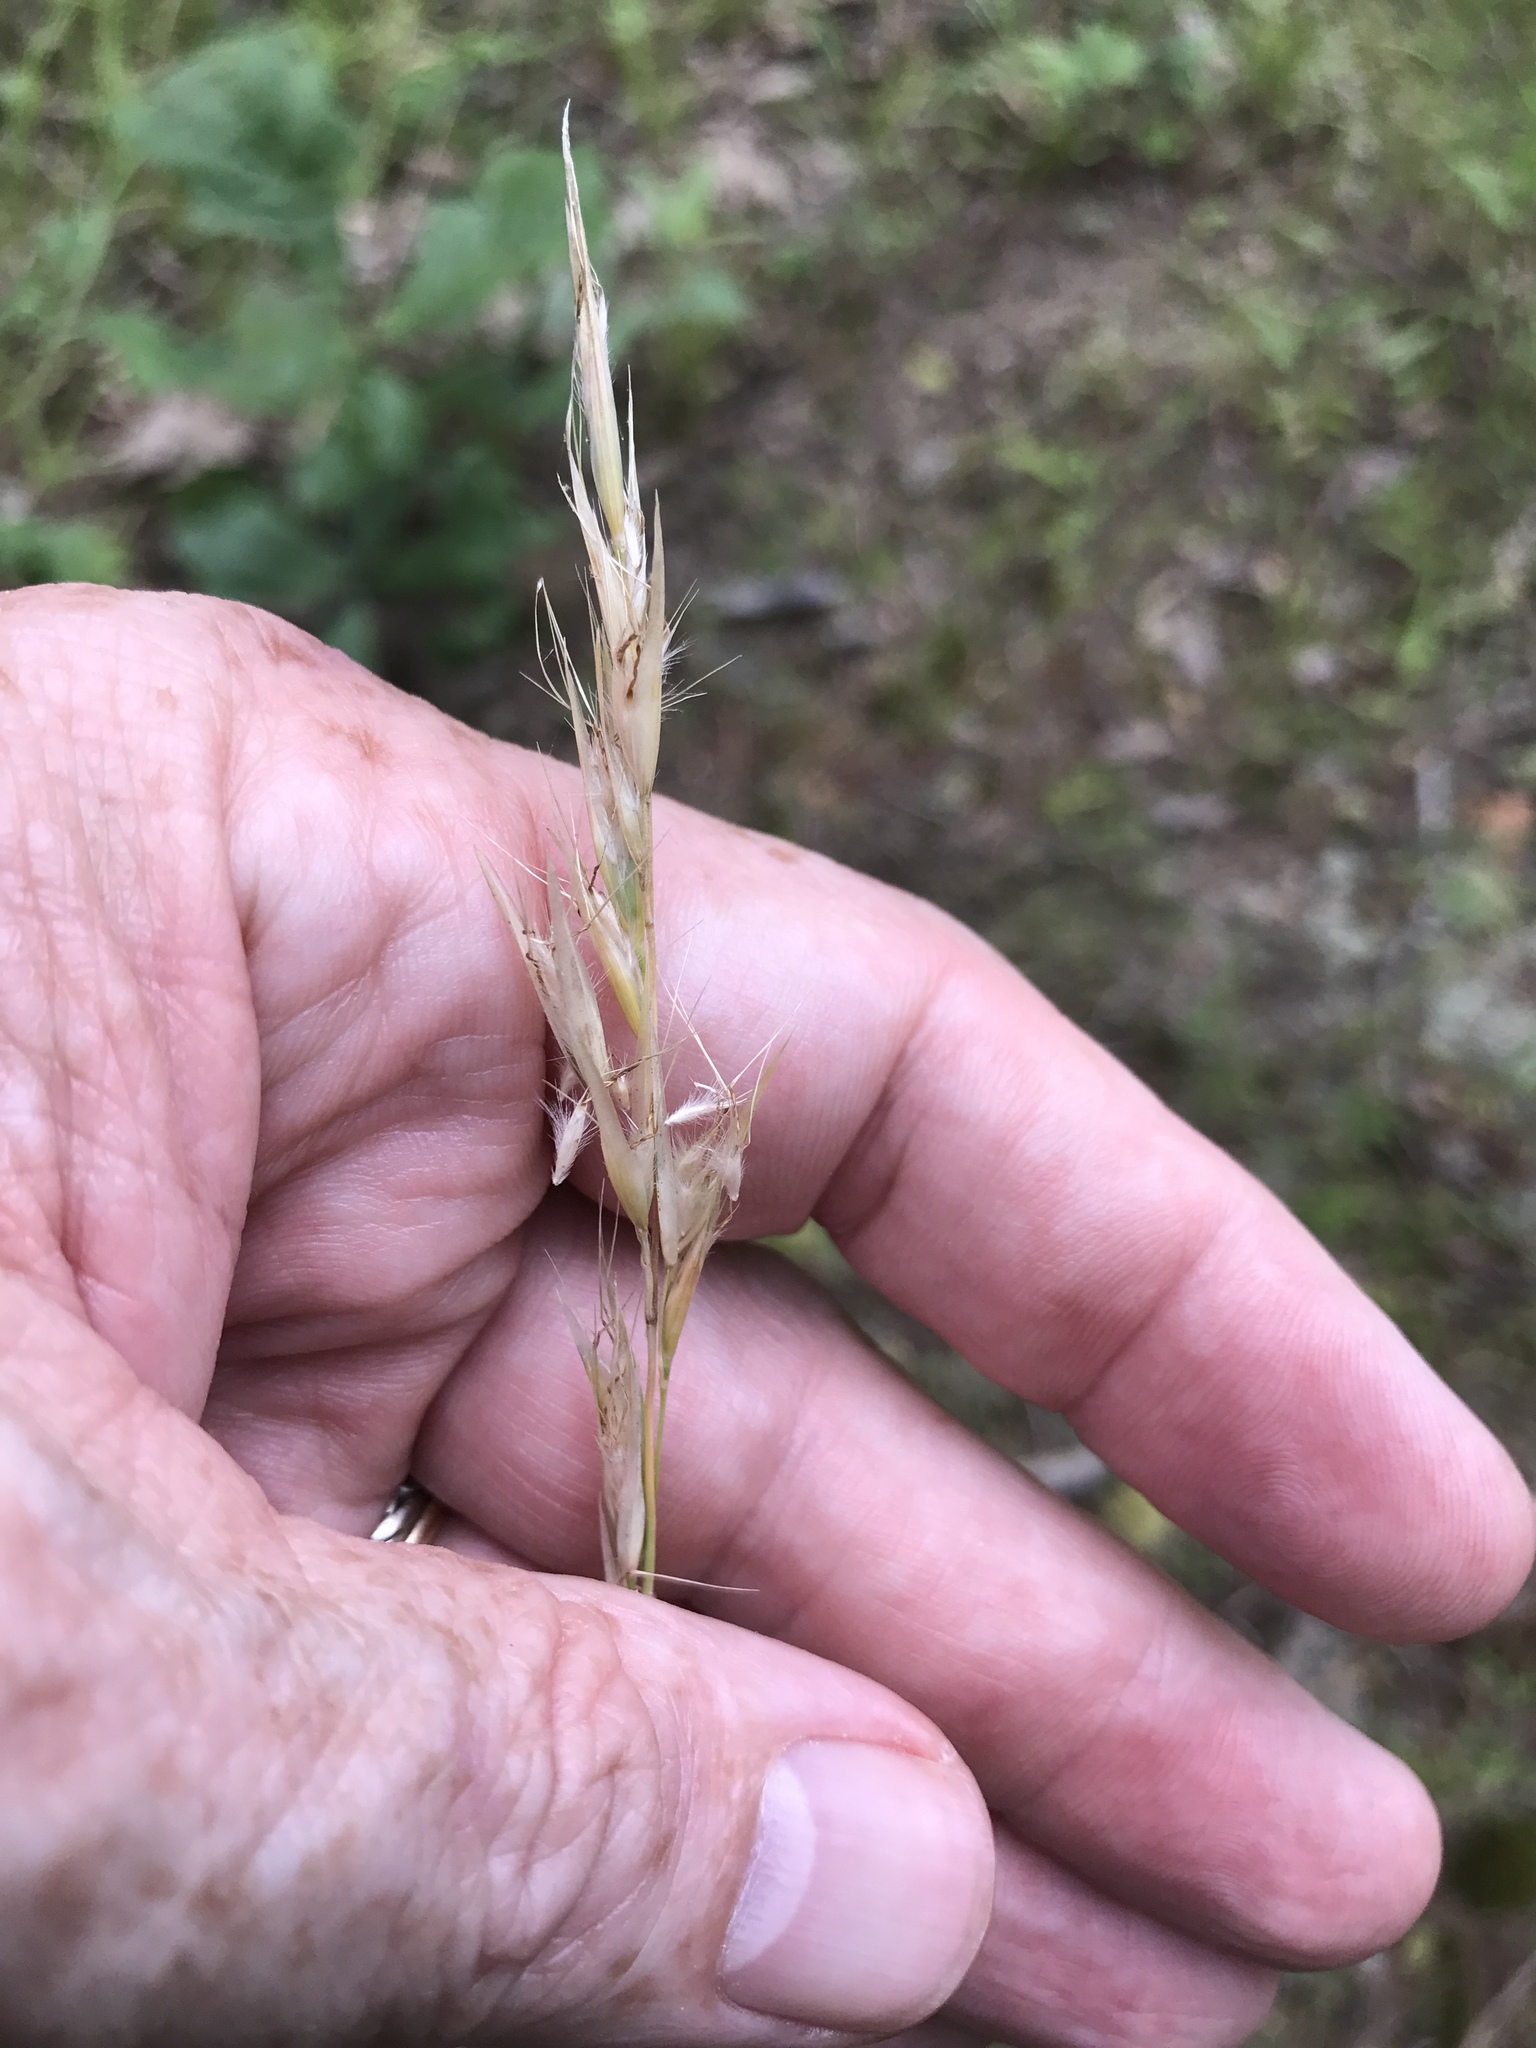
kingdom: Plantae
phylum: Tracheophyta
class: Liliopsida
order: Poales
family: Poaceae
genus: Danthonia
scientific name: Danthonia sericea
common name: Downy danthonia
